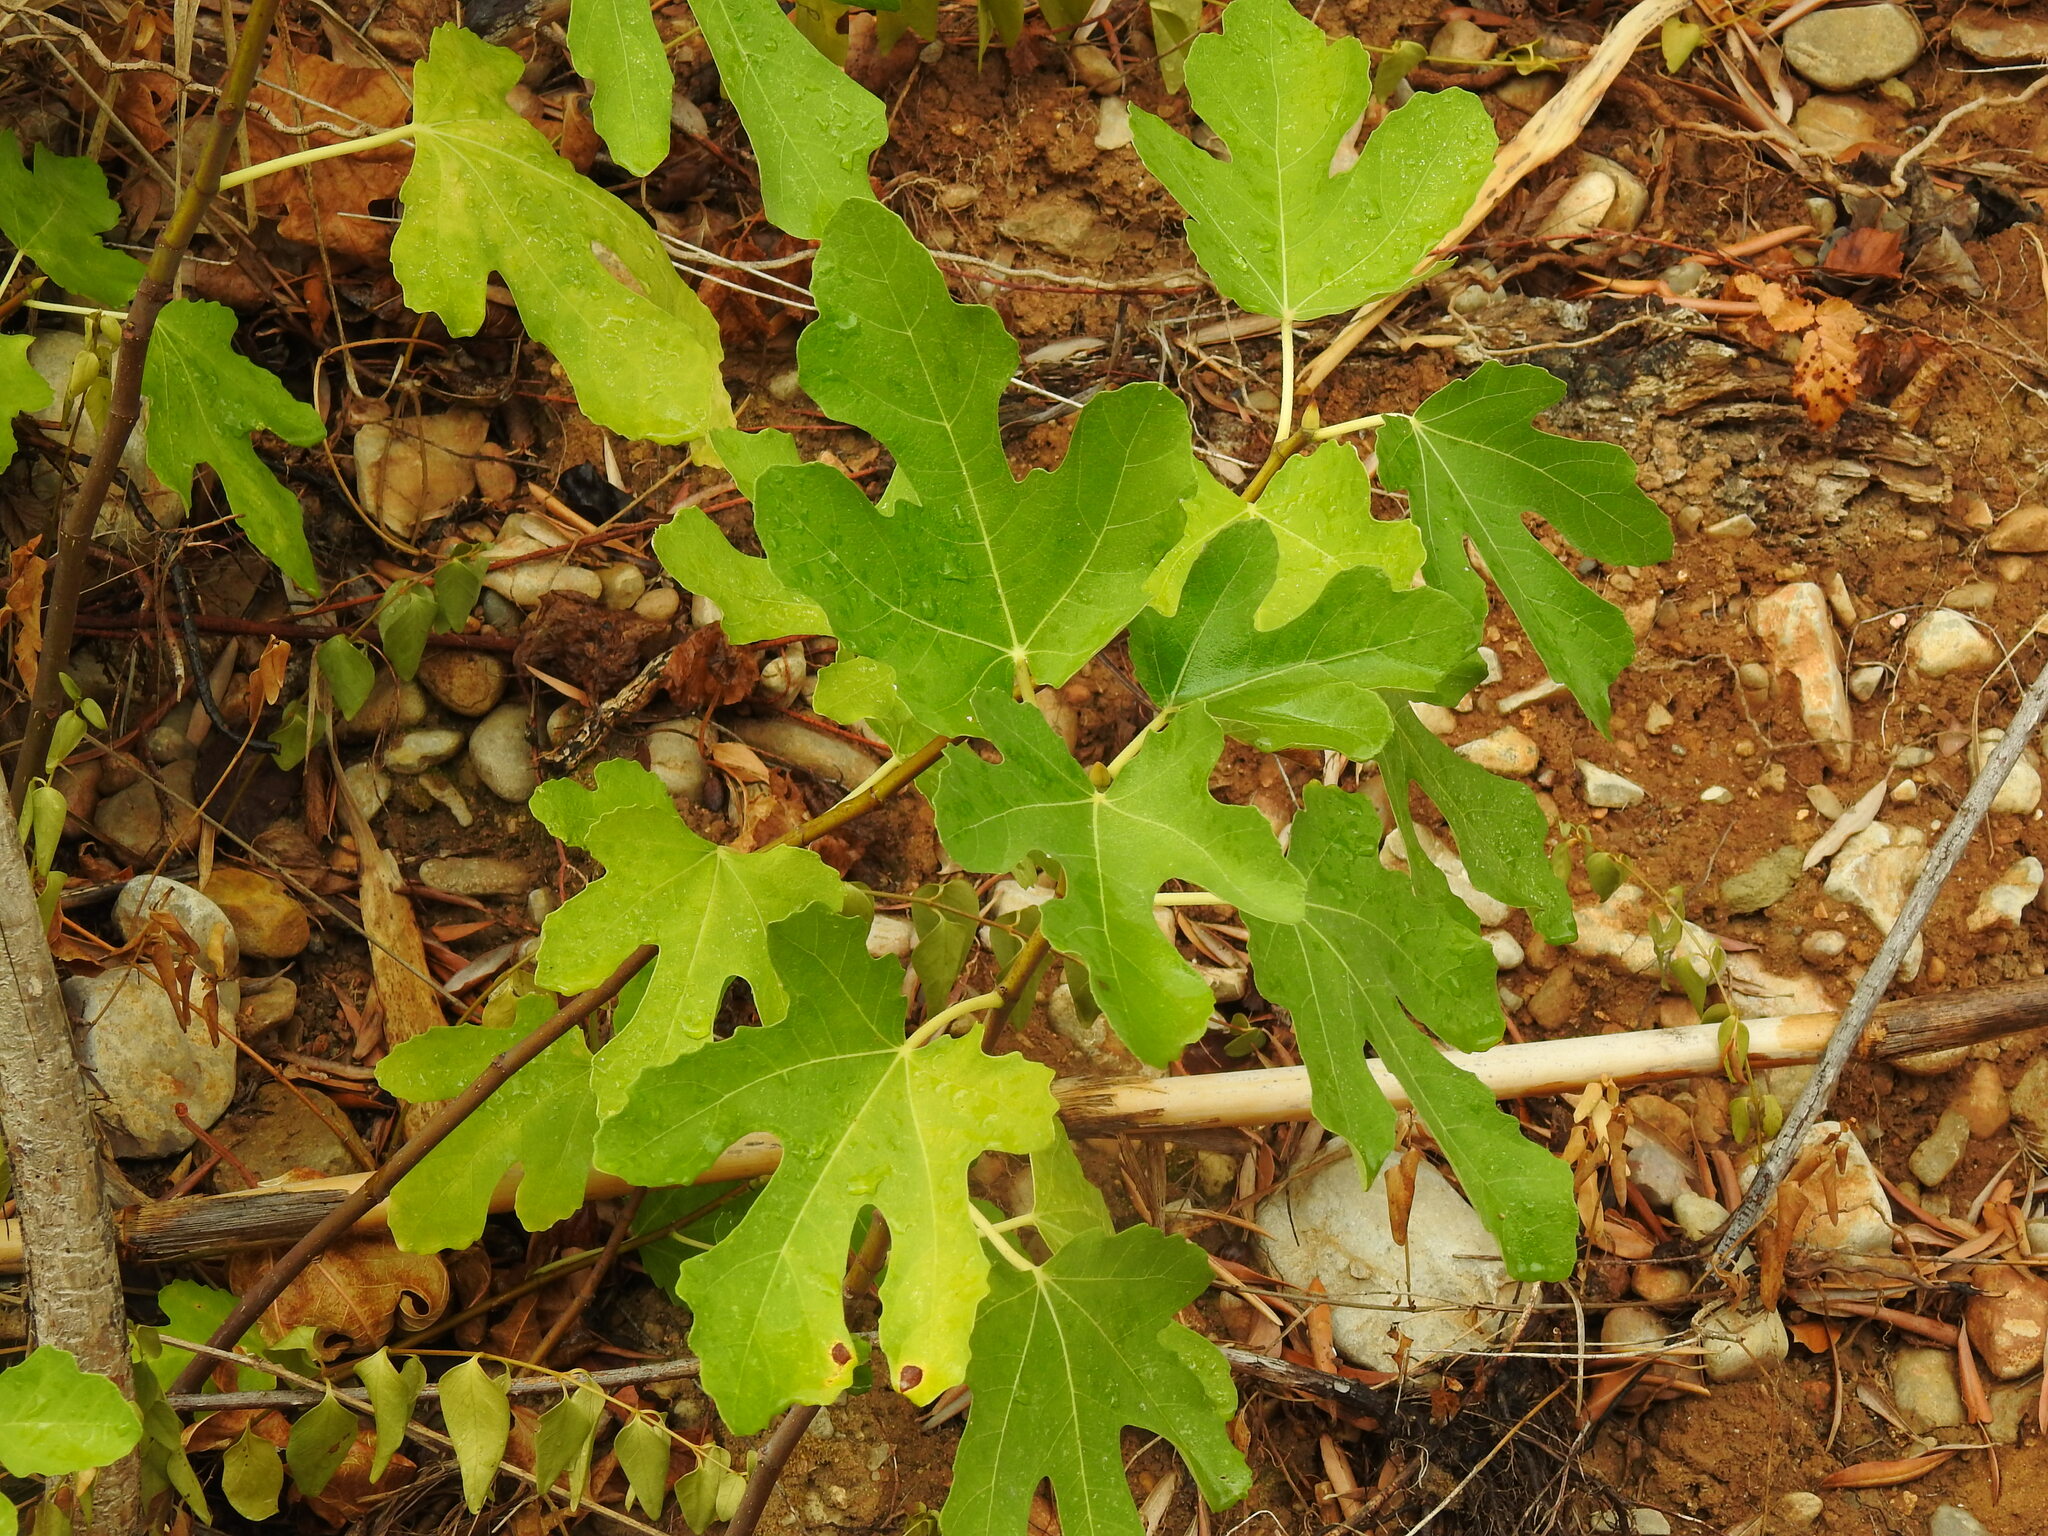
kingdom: Plantae
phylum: Tracheophyta
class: Magnoliopsida
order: Rosales
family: Moraceae
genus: Ficus
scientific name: Ficus carica
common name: Fig
